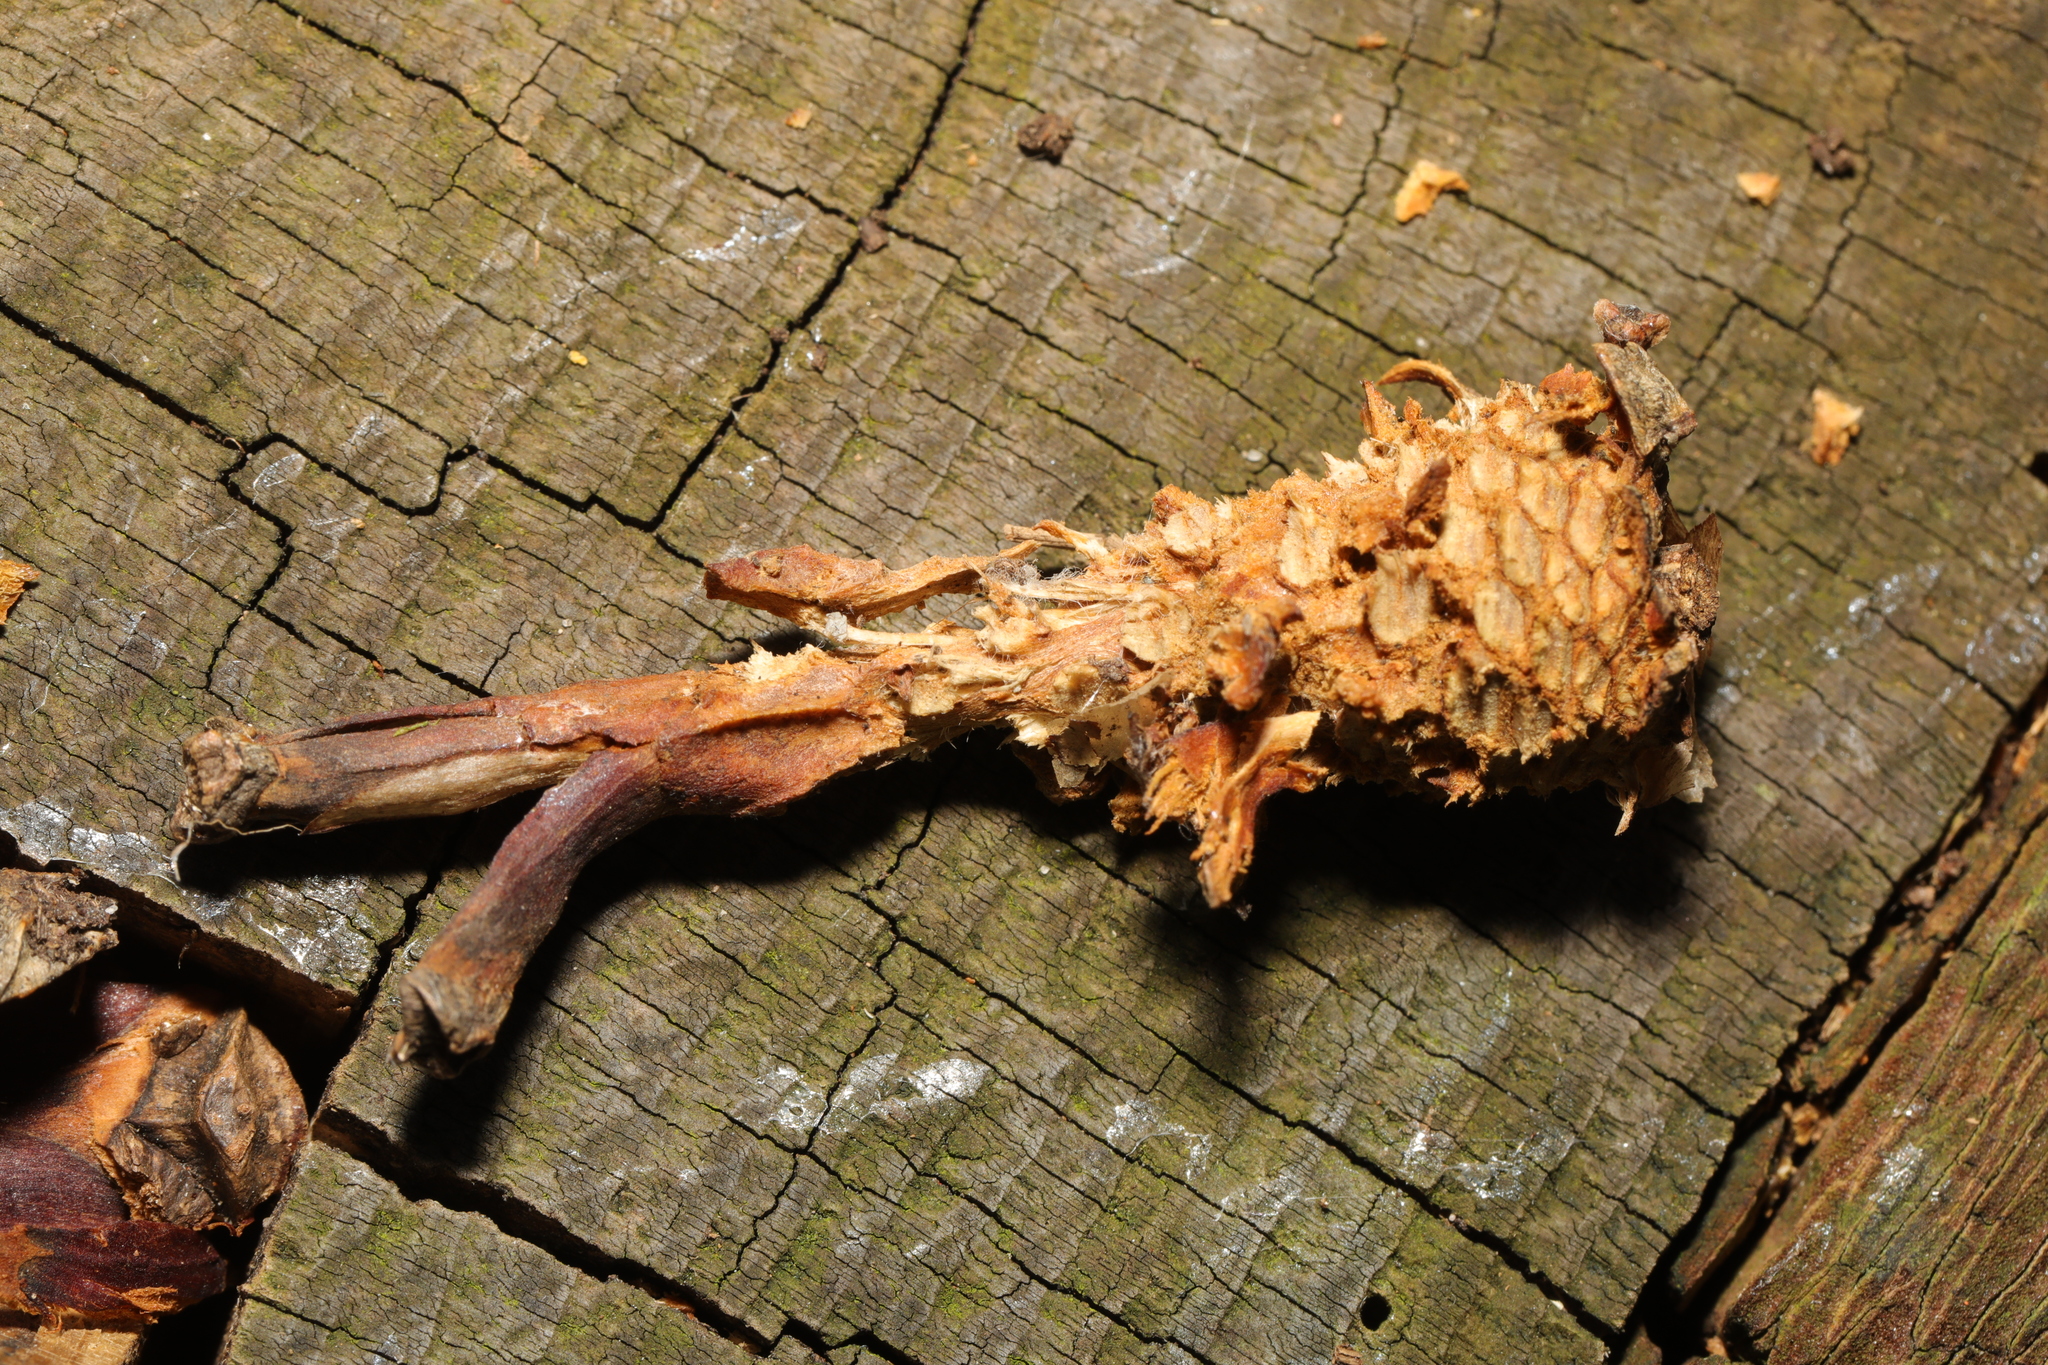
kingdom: Animalia
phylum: Chordata
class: Mammalia
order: Rodentia
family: Sciuridae
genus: Sciurus
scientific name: Sciurus carolinensis
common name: Eastern gray squirrel
